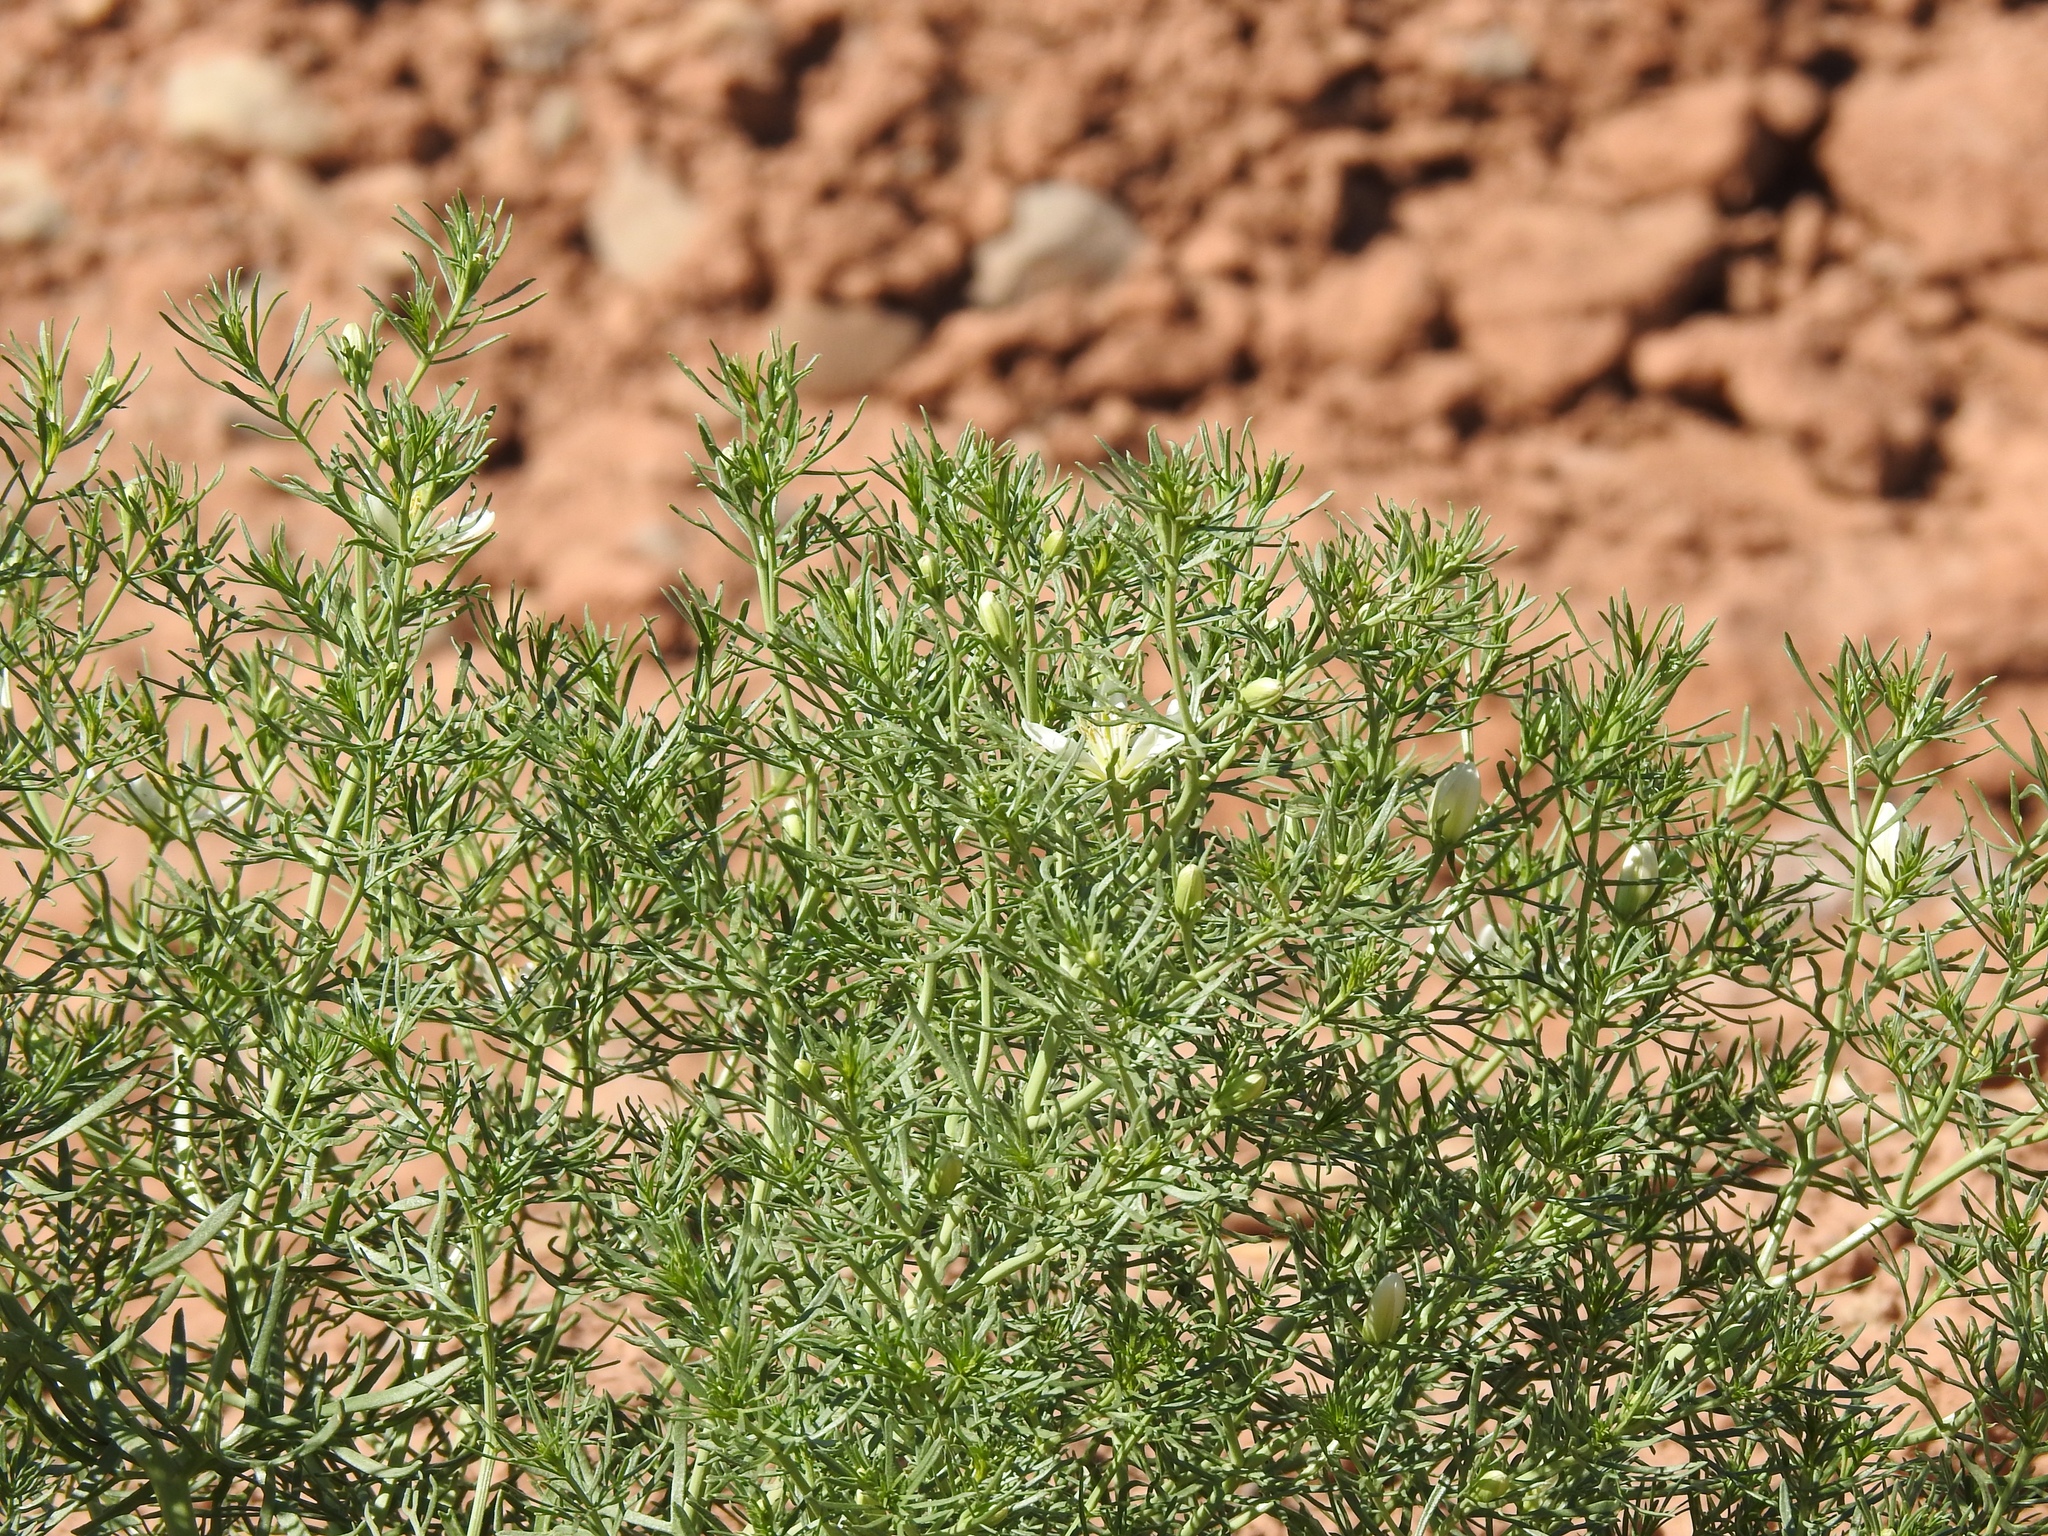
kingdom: Plantae
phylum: Tracheophyta
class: Magnoliopsida
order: Sapindales
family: Tetradiclidaceae
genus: Peganum
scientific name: Peganum harmala
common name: Harmal peganum
